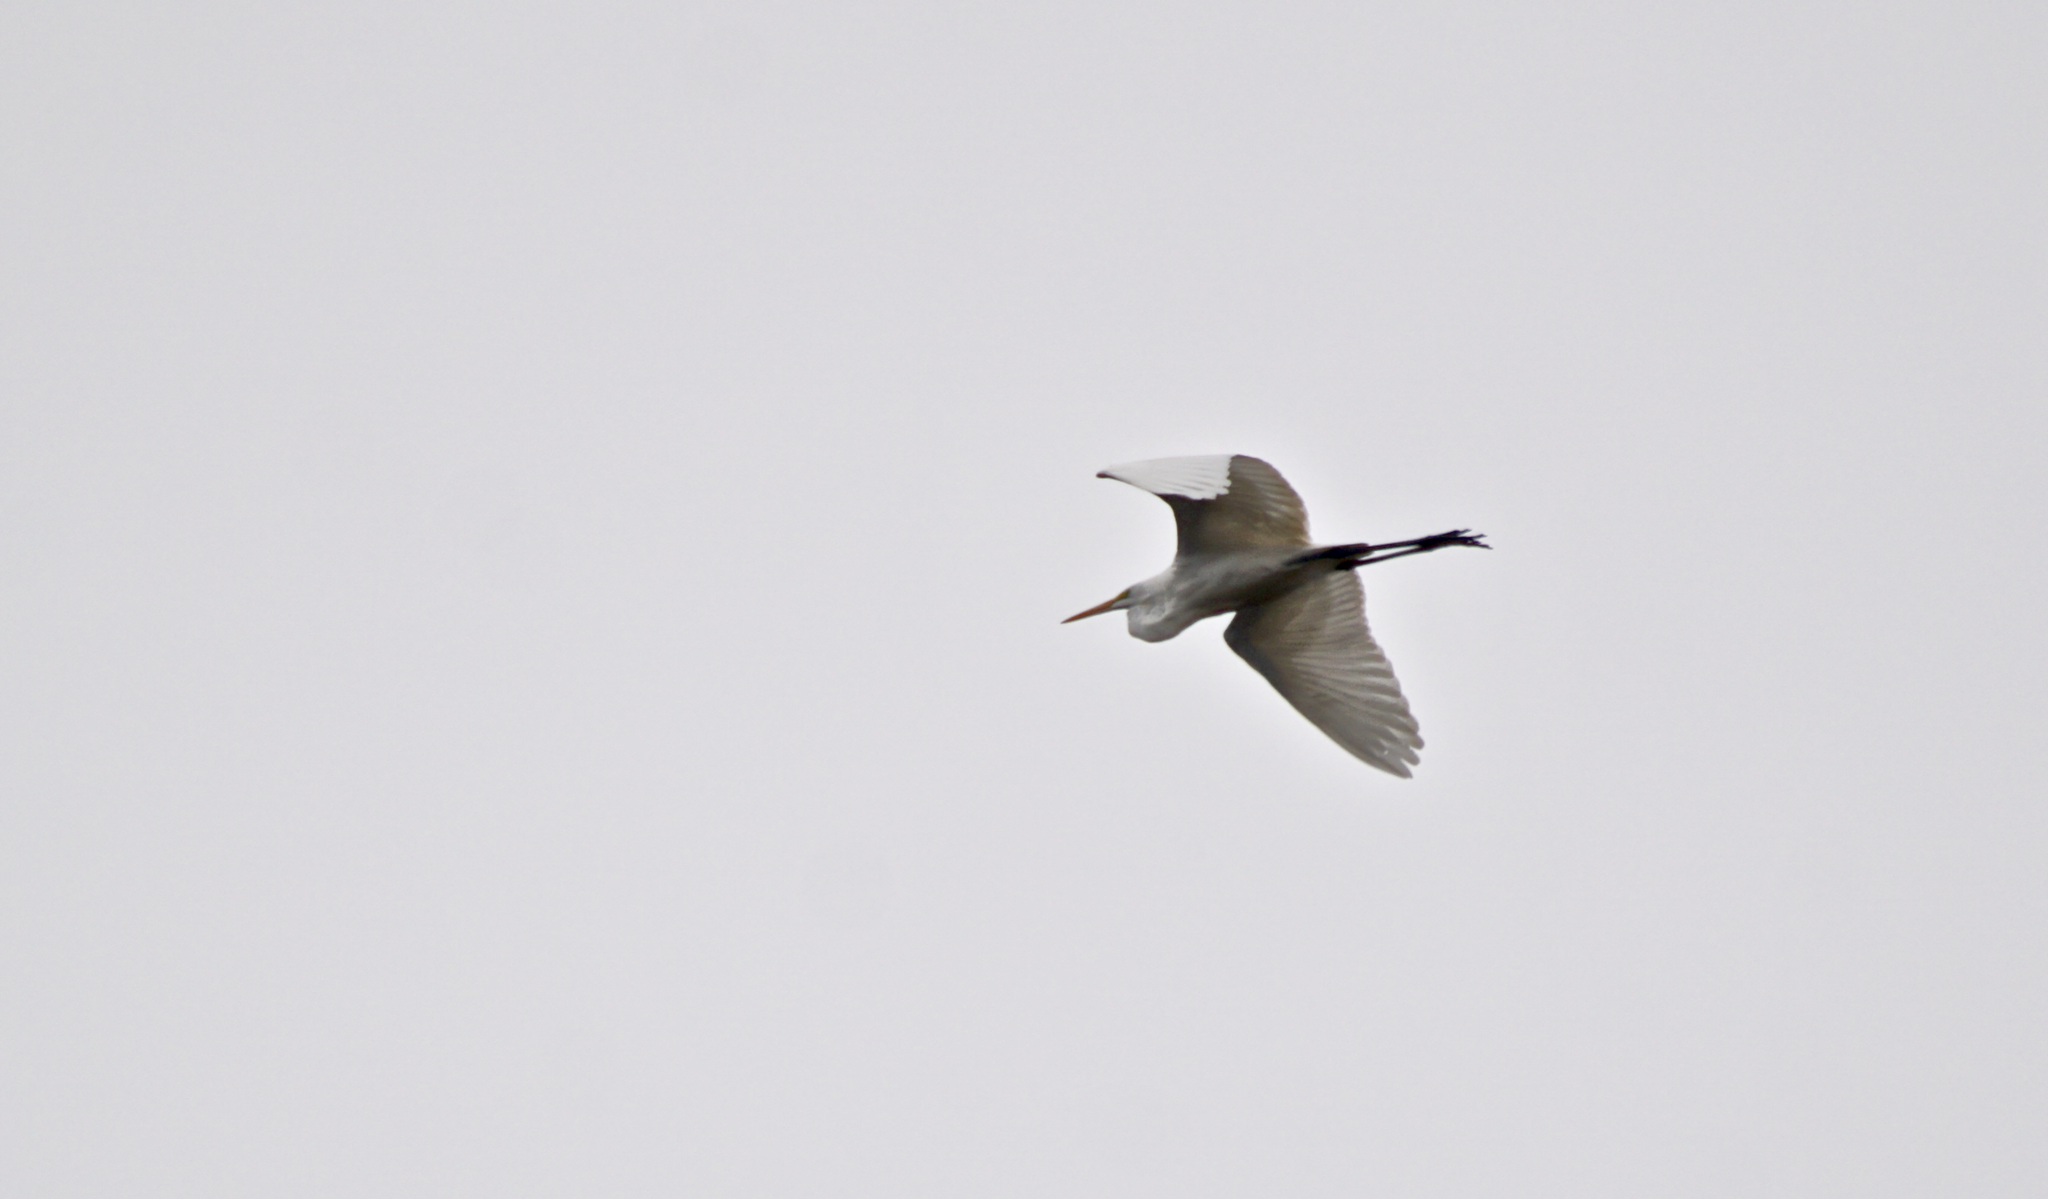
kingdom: Animalia
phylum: Chordata
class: Aves
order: Pelecaniformes
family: Ardeidae
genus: Ardea
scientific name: Ardea alba
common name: Great egret
